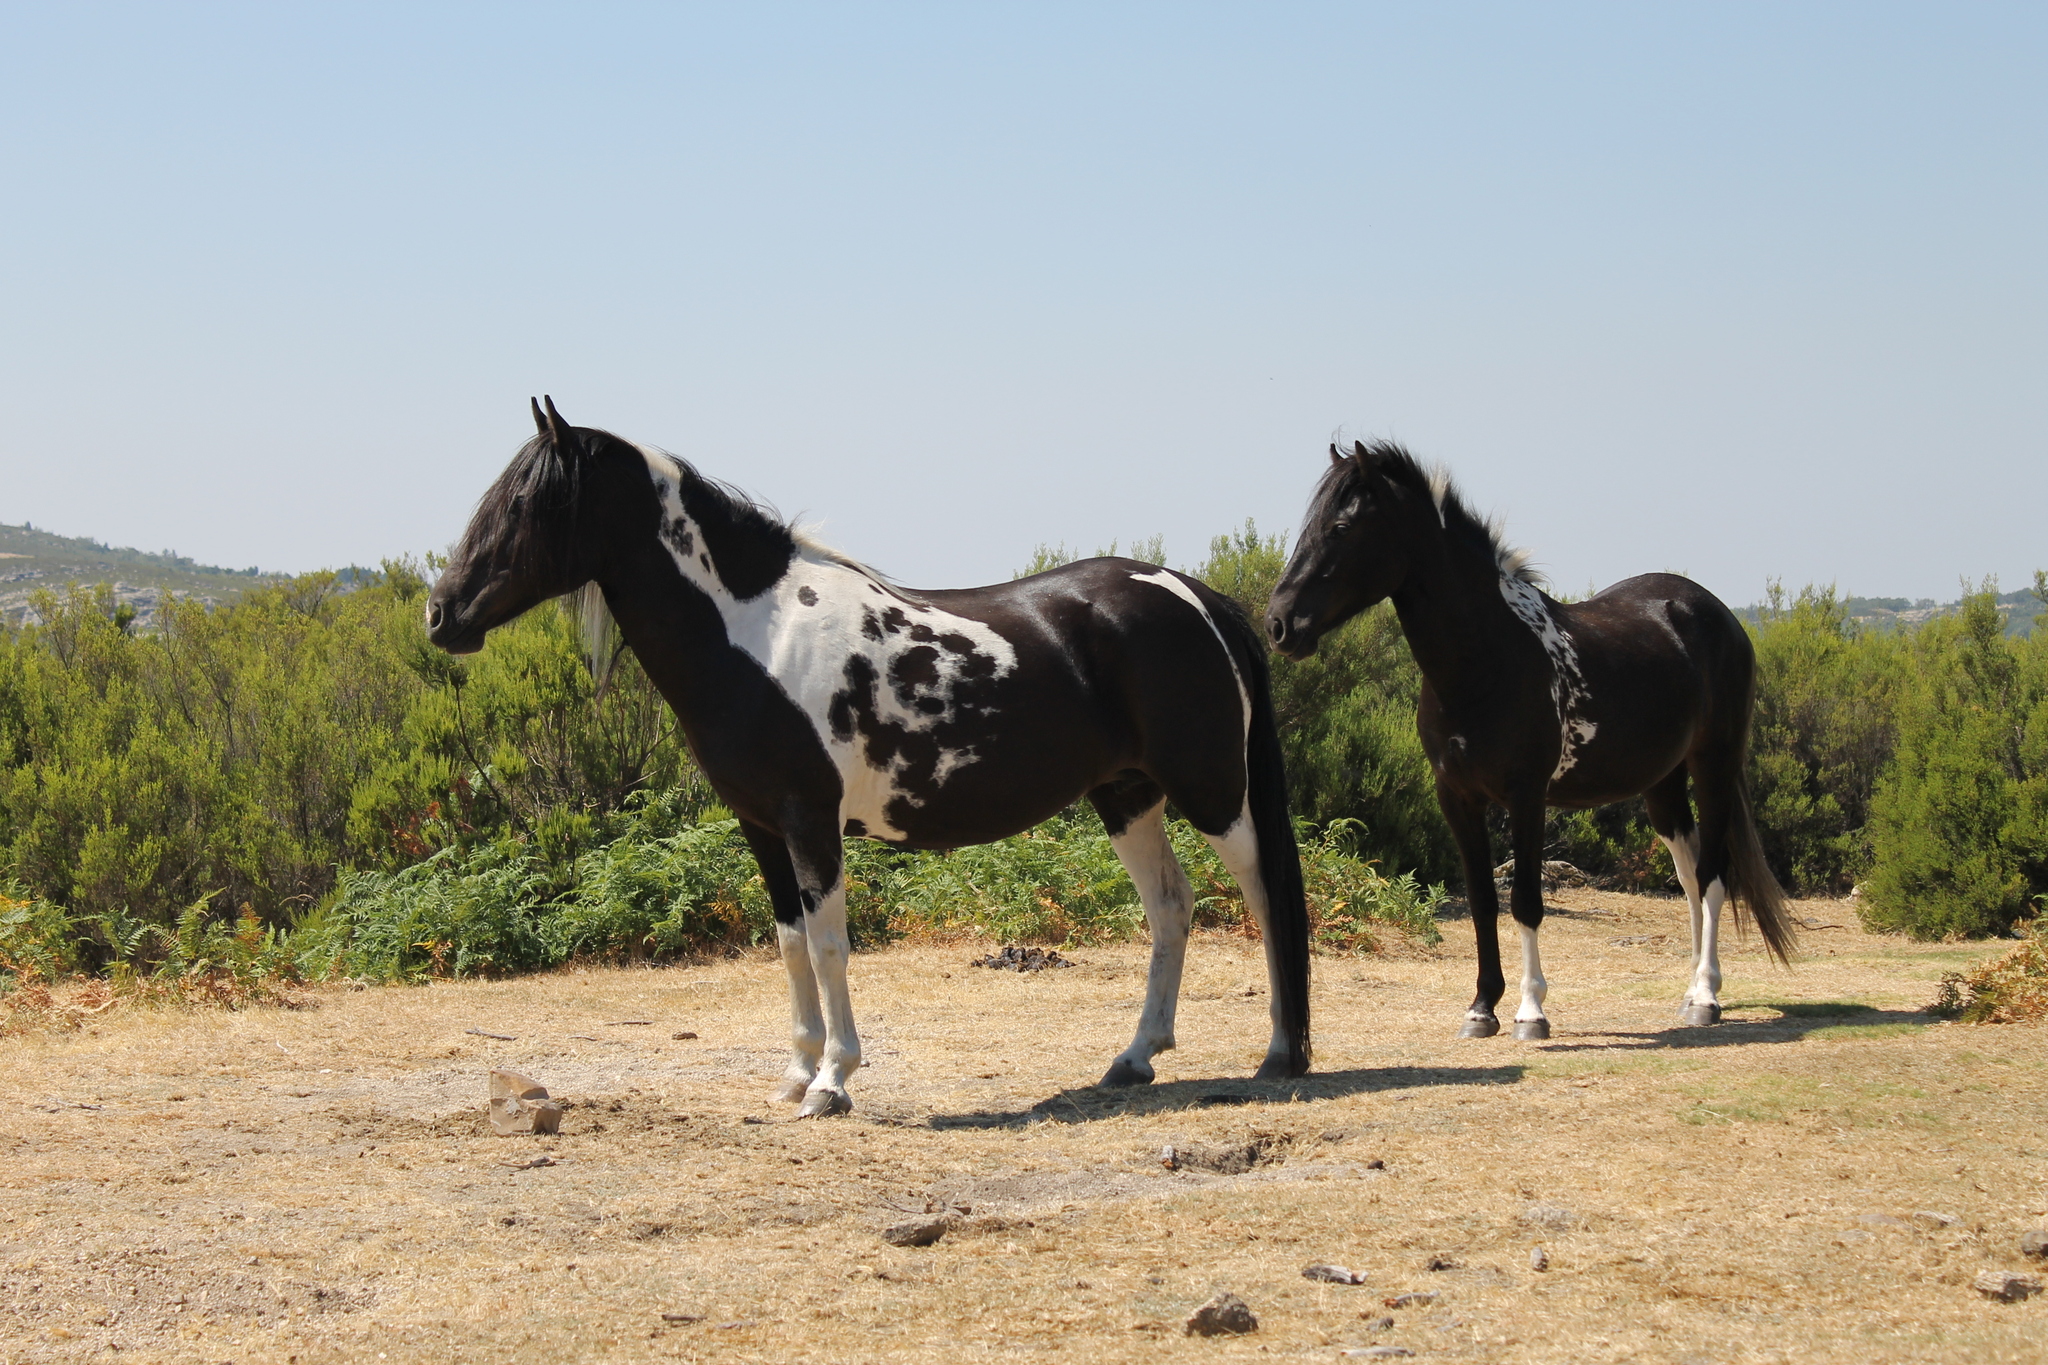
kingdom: Animalia
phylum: Chordata
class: Mammalia
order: Perissodactyla
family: Equidae
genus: Equus
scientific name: Equus caballus
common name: Horse
